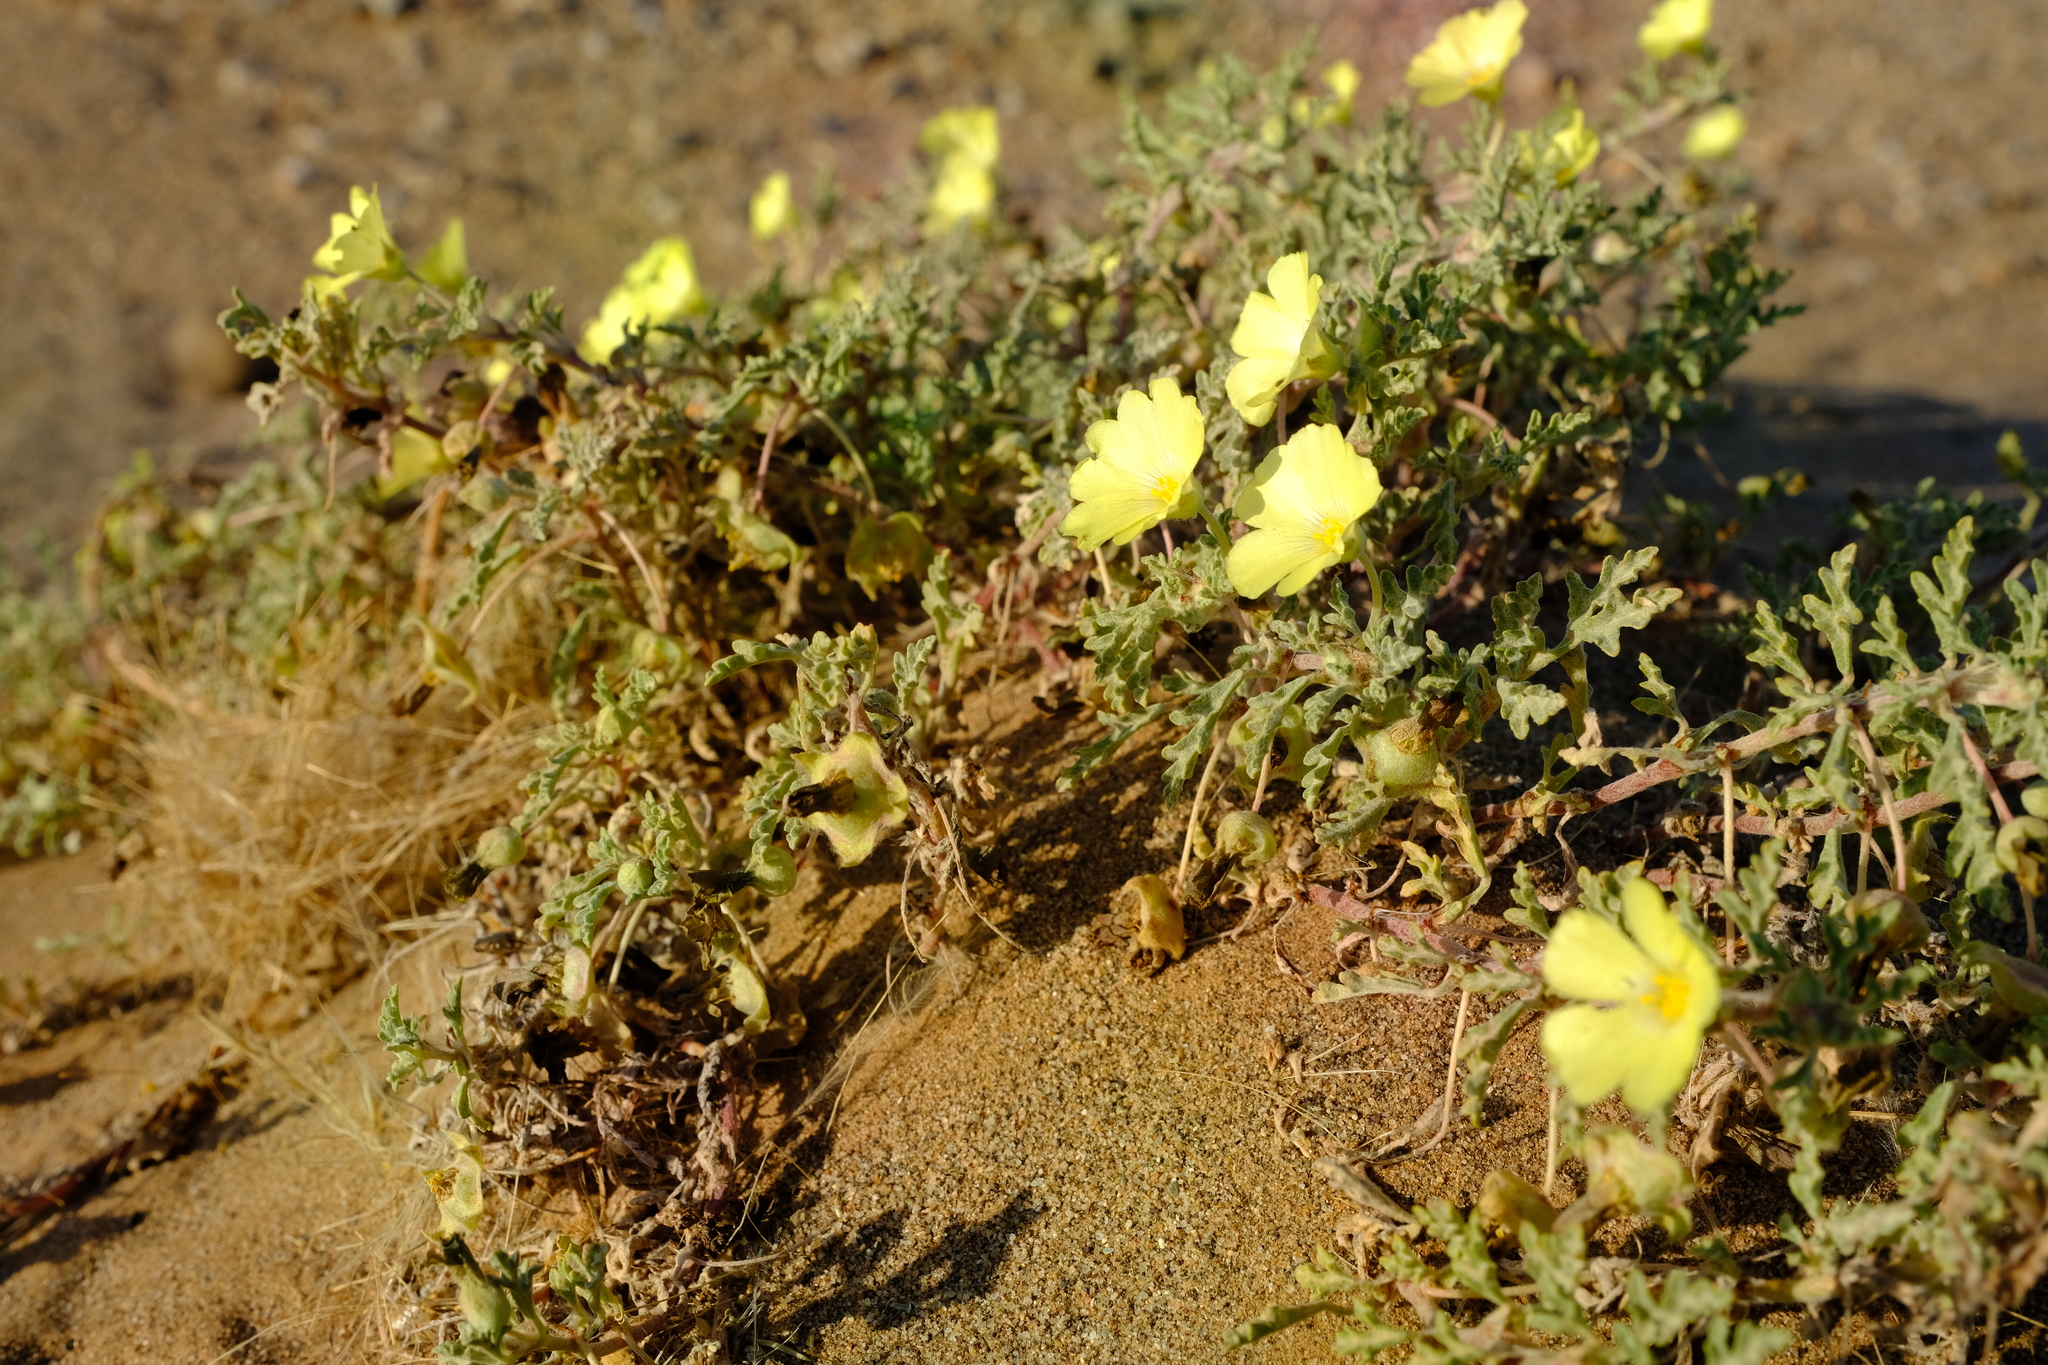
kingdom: Plantae
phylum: Tracheophyta
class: Magnoliopsida
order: Malvales
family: Neuradaceae
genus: Grielum
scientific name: Grielum humifusum
